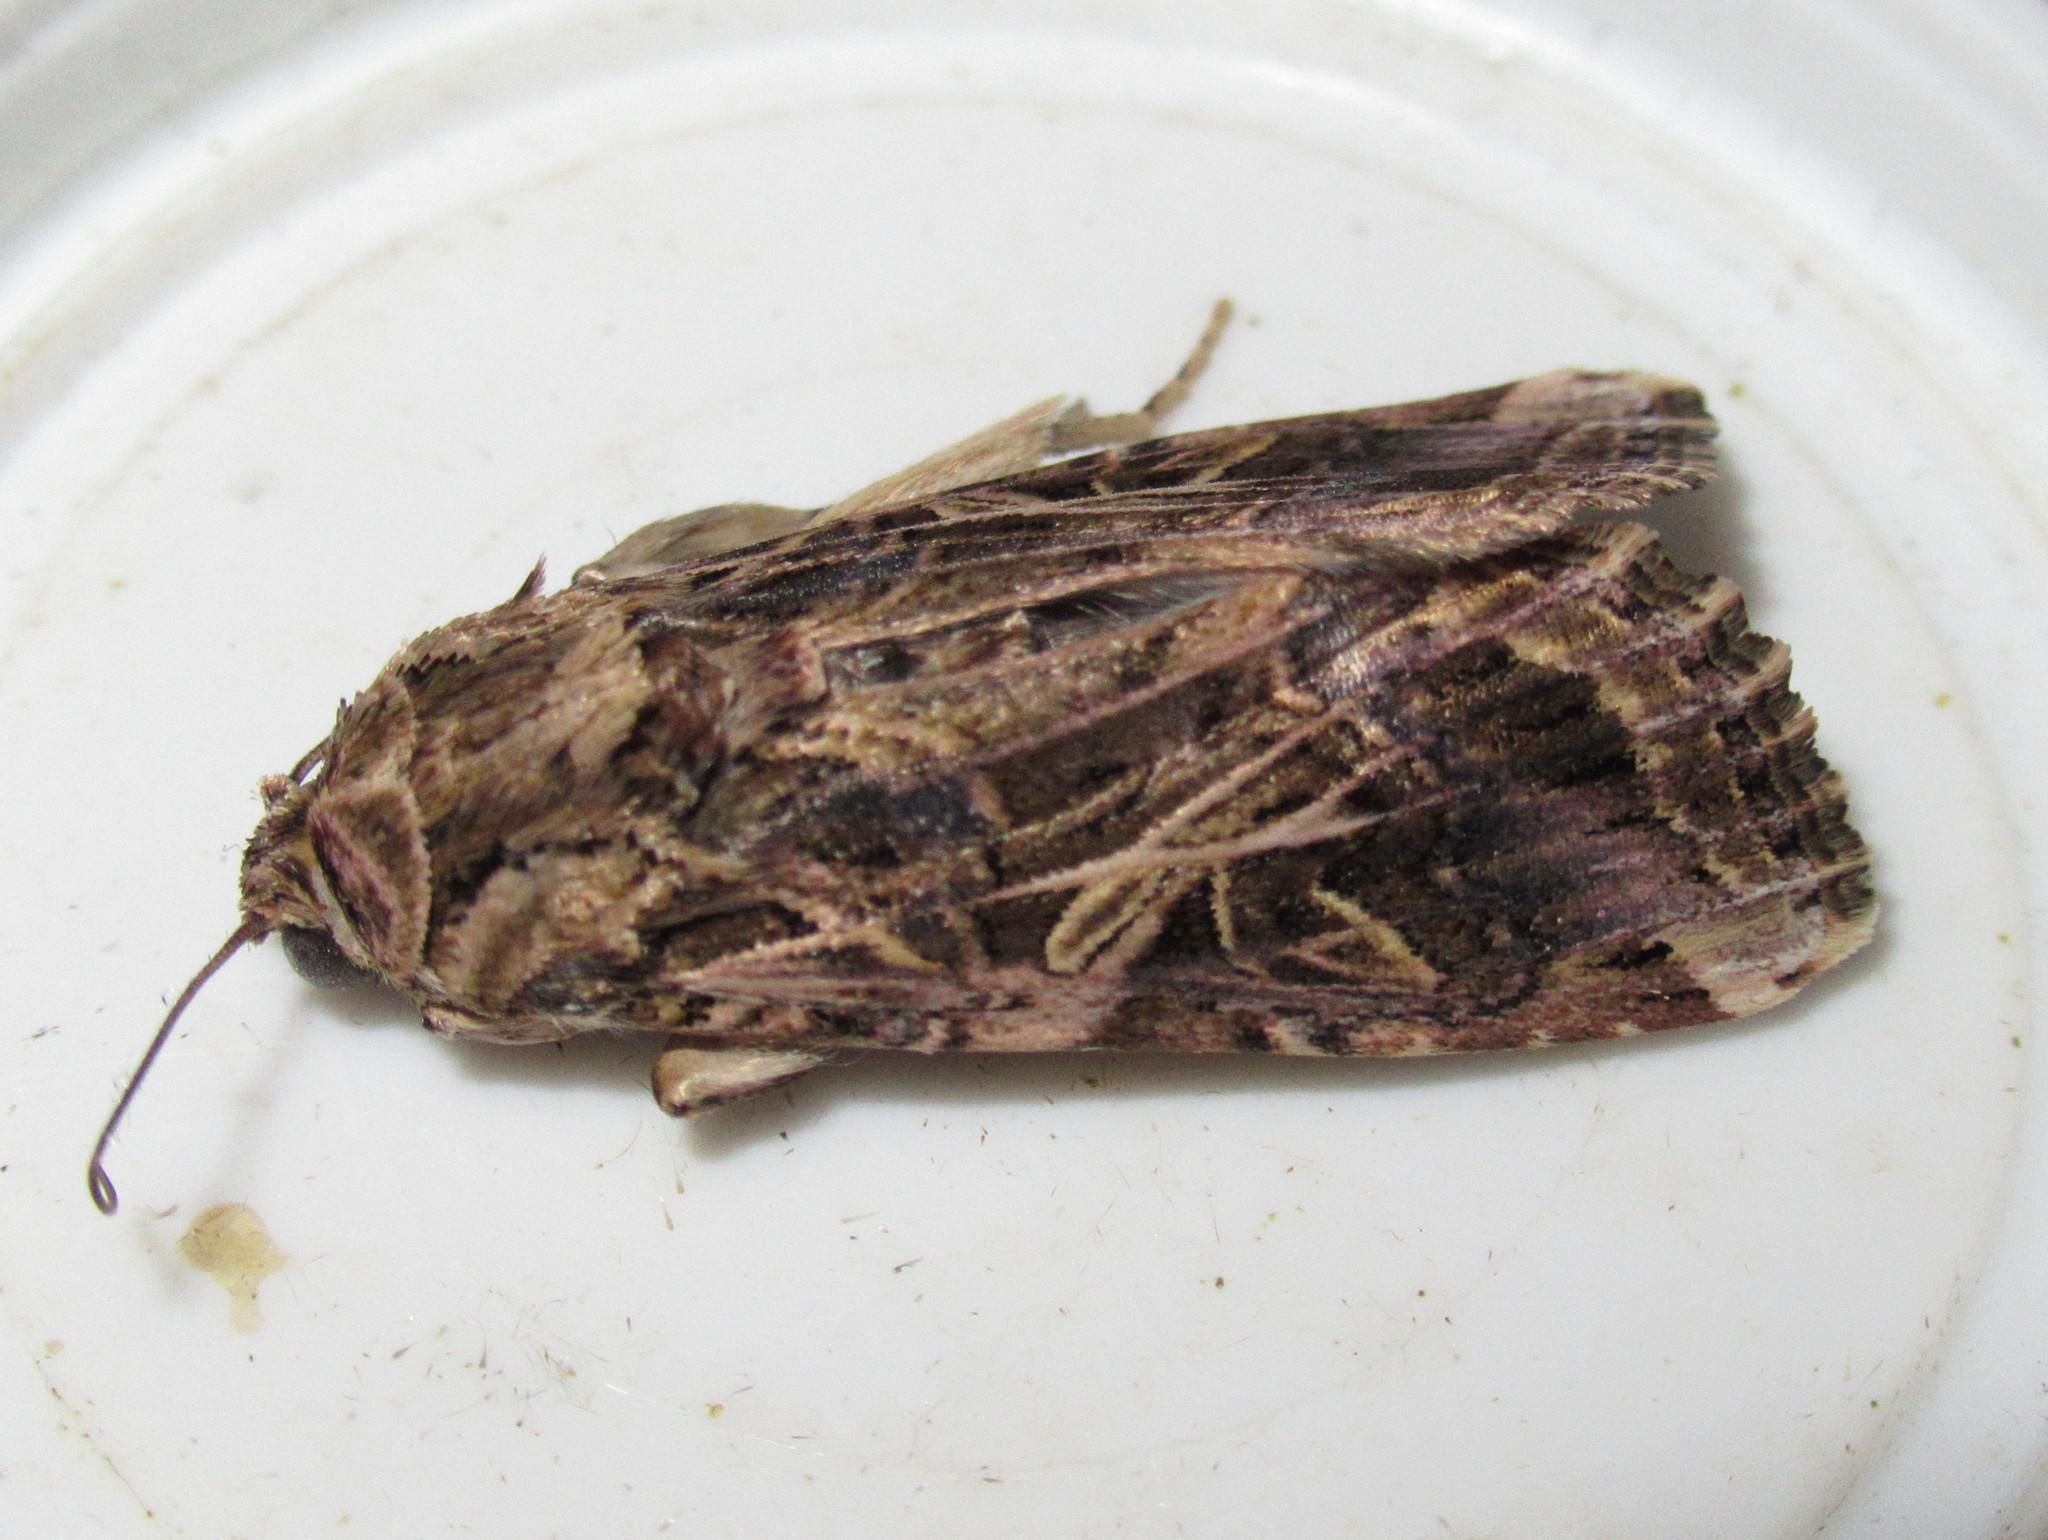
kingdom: Animalia
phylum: Arthropoda
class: Insecta
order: Lepidoptera
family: Noctuidae
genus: Spodoptera
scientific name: Spodoptera litura
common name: Asian cotton leafworm
